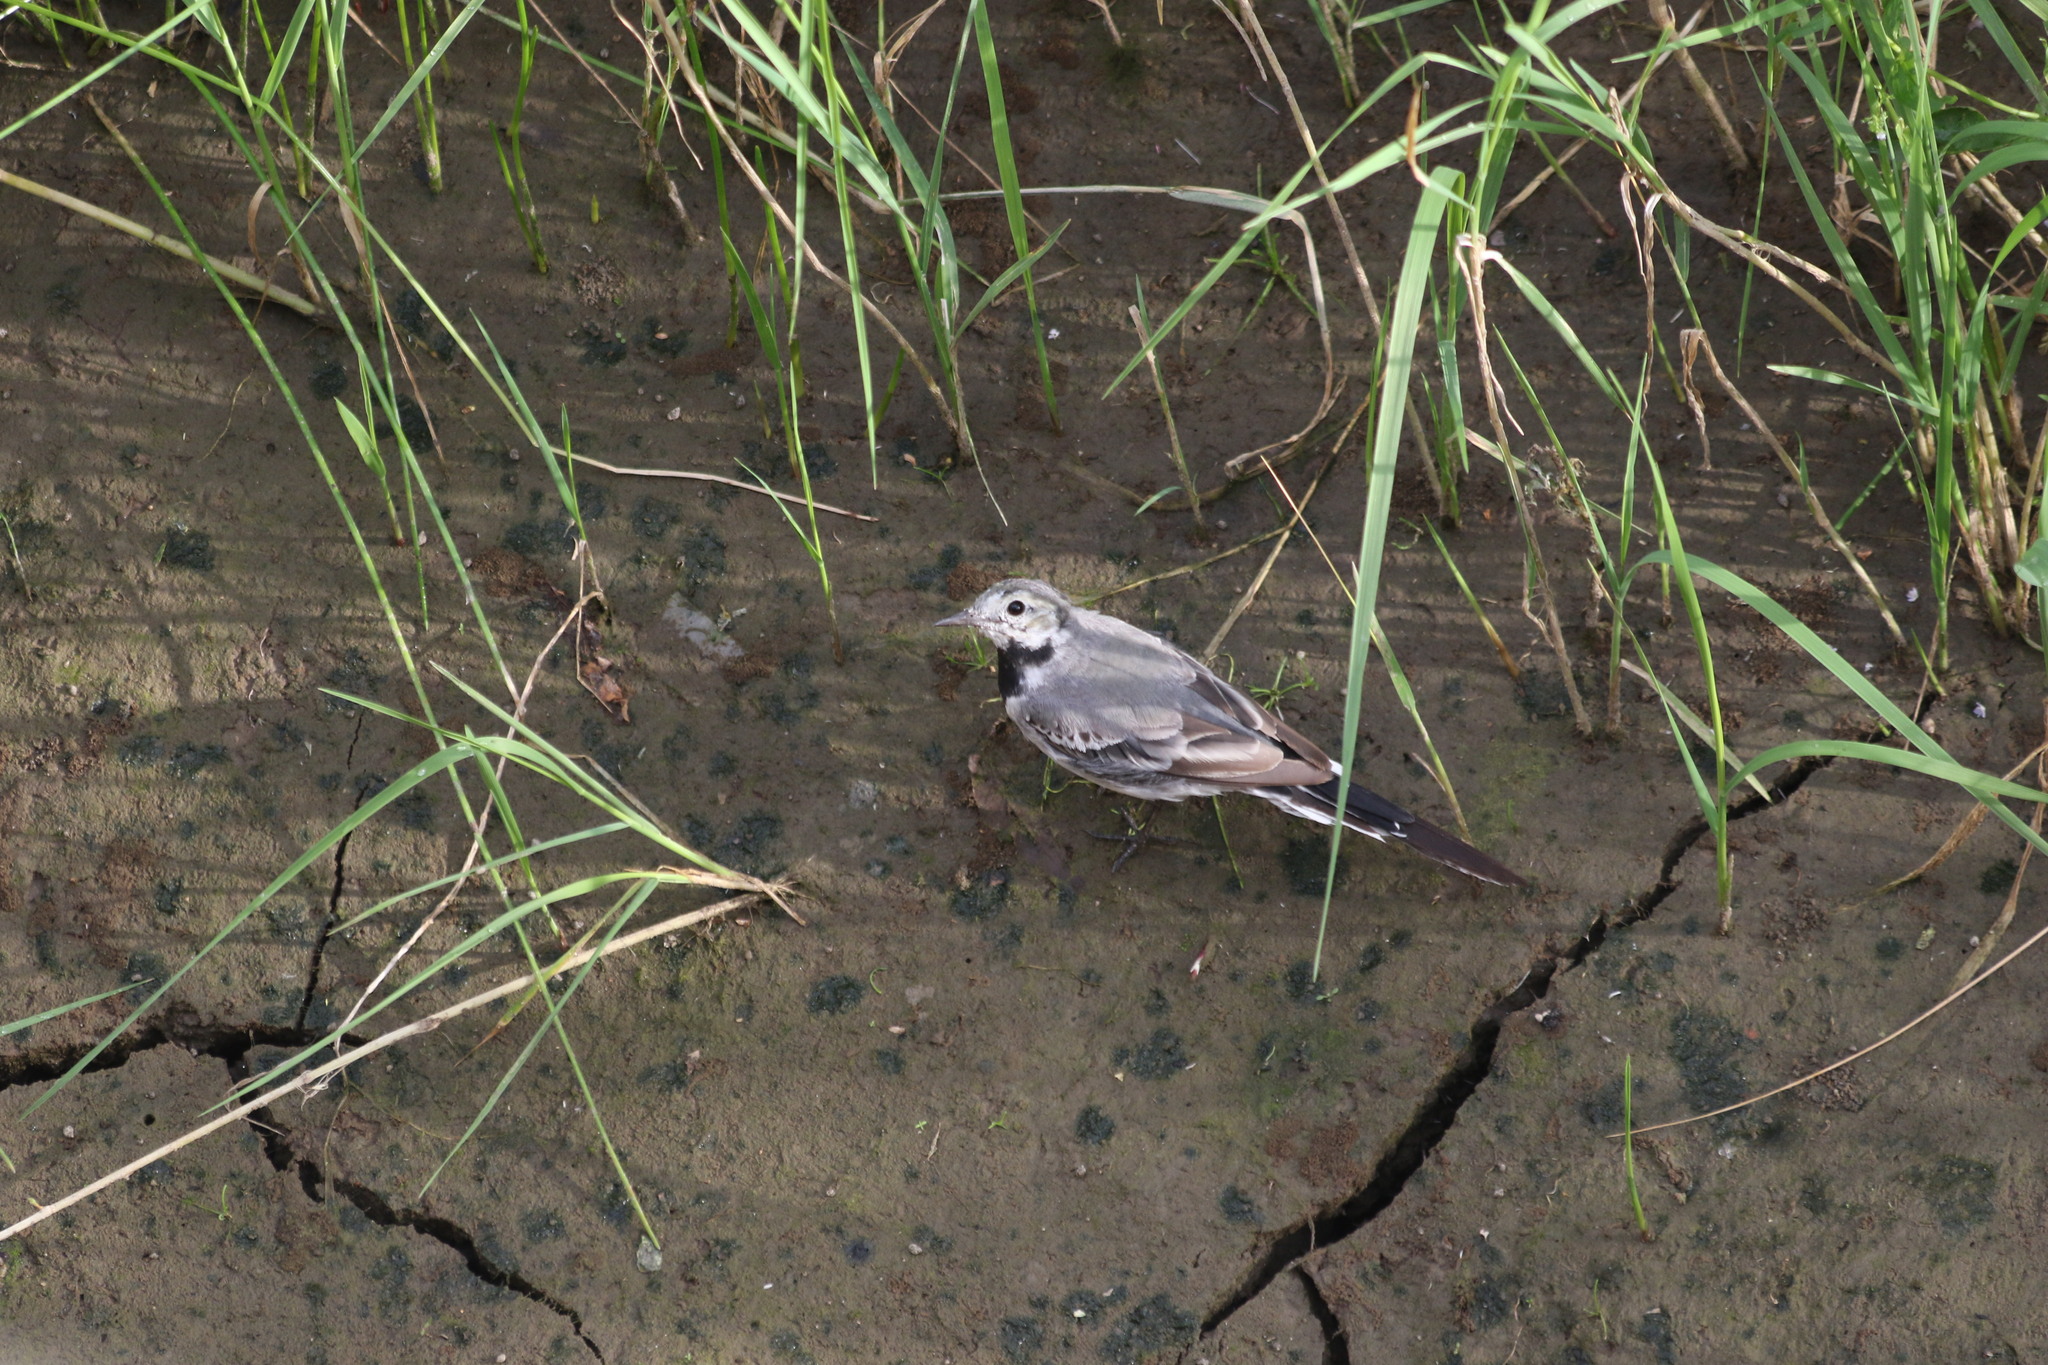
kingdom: Animalia
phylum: Chordata
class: Aves
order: Passeriformes
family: Motacillidae
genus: Motacilla
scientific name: Motacilla alba
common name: White wagtail
